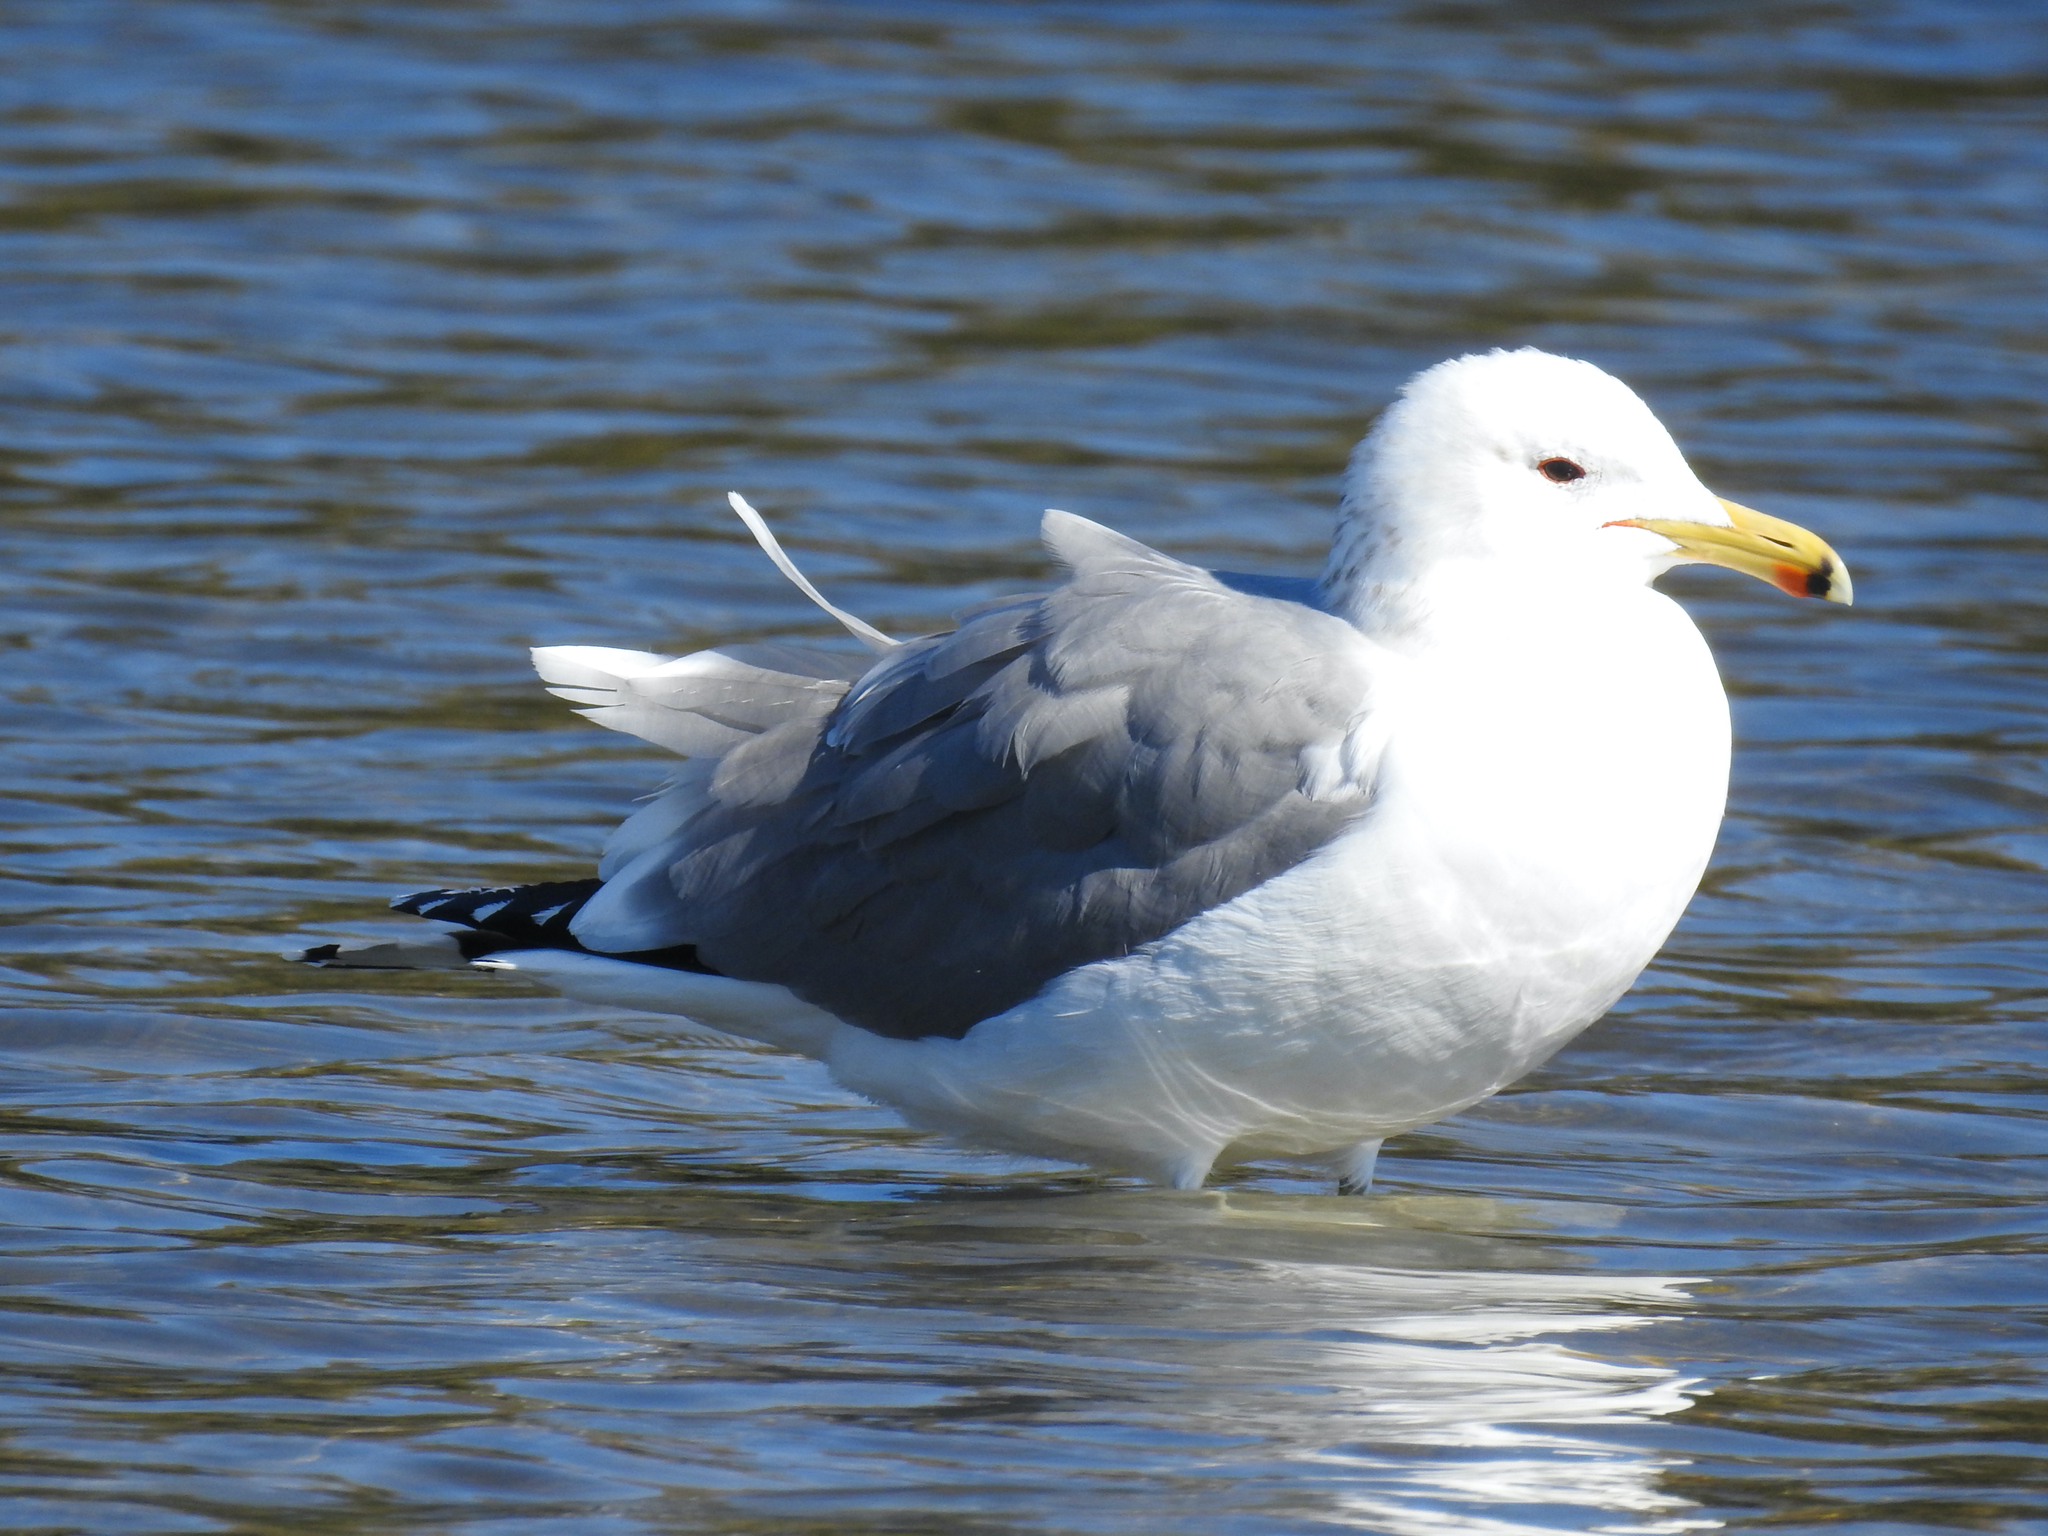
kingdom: Animalia
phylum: Chordata
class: Aves
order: Charadriiformes
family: Laridae
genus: Larus
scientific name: Larus californicus
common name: California gull
